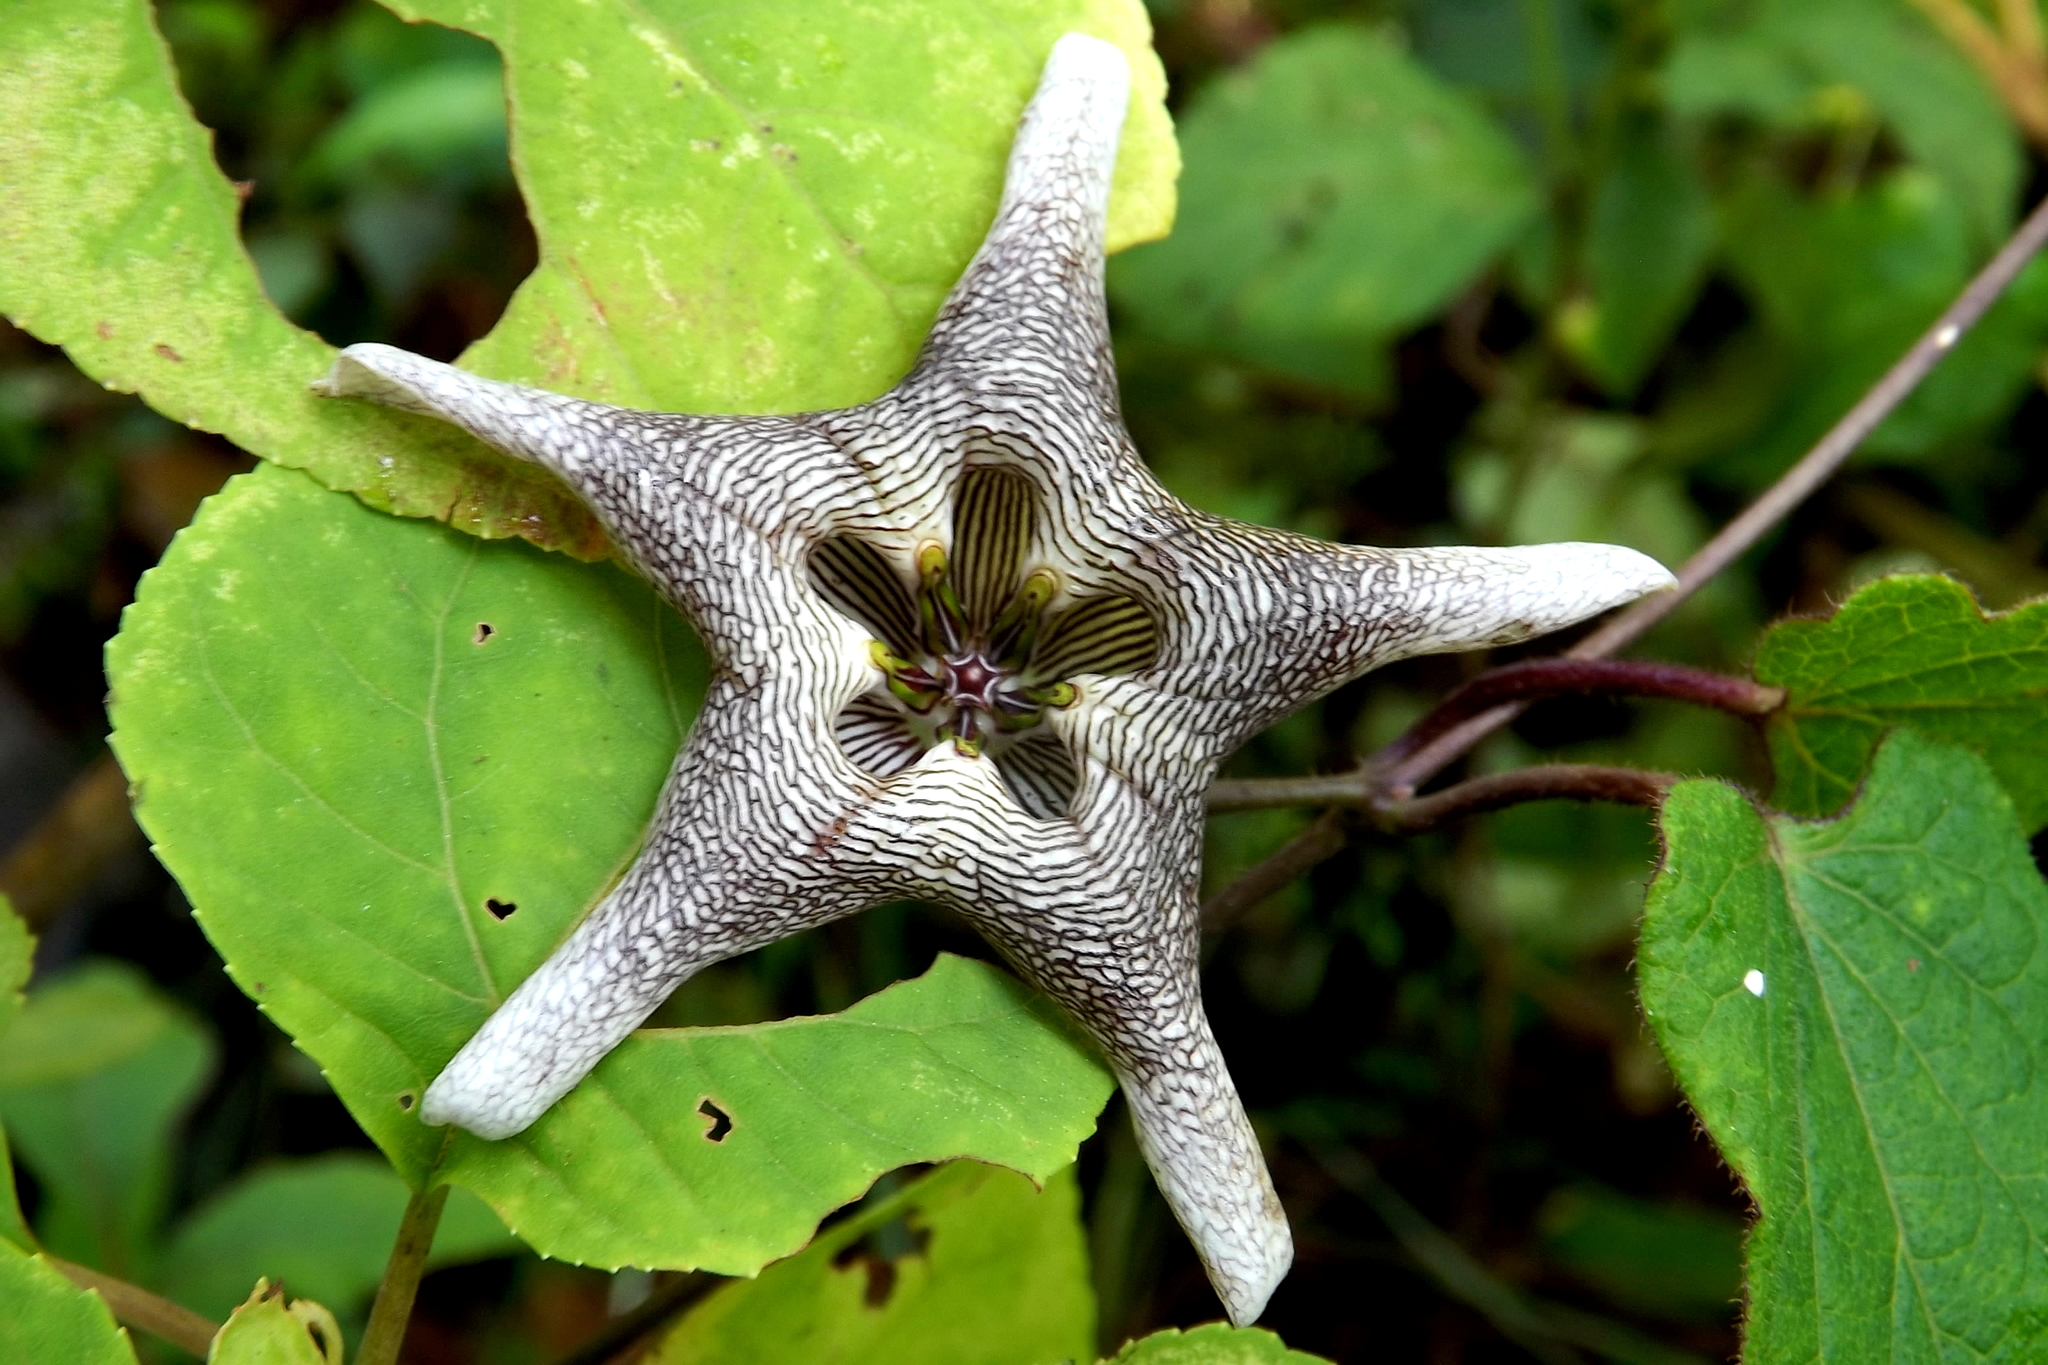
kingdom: Plantae
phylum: Tracheophyta
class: Magnoliopsida
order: Gentianales
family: Apocynaceae
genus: Dictyanthus
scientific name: Dictyanthus pavonii
